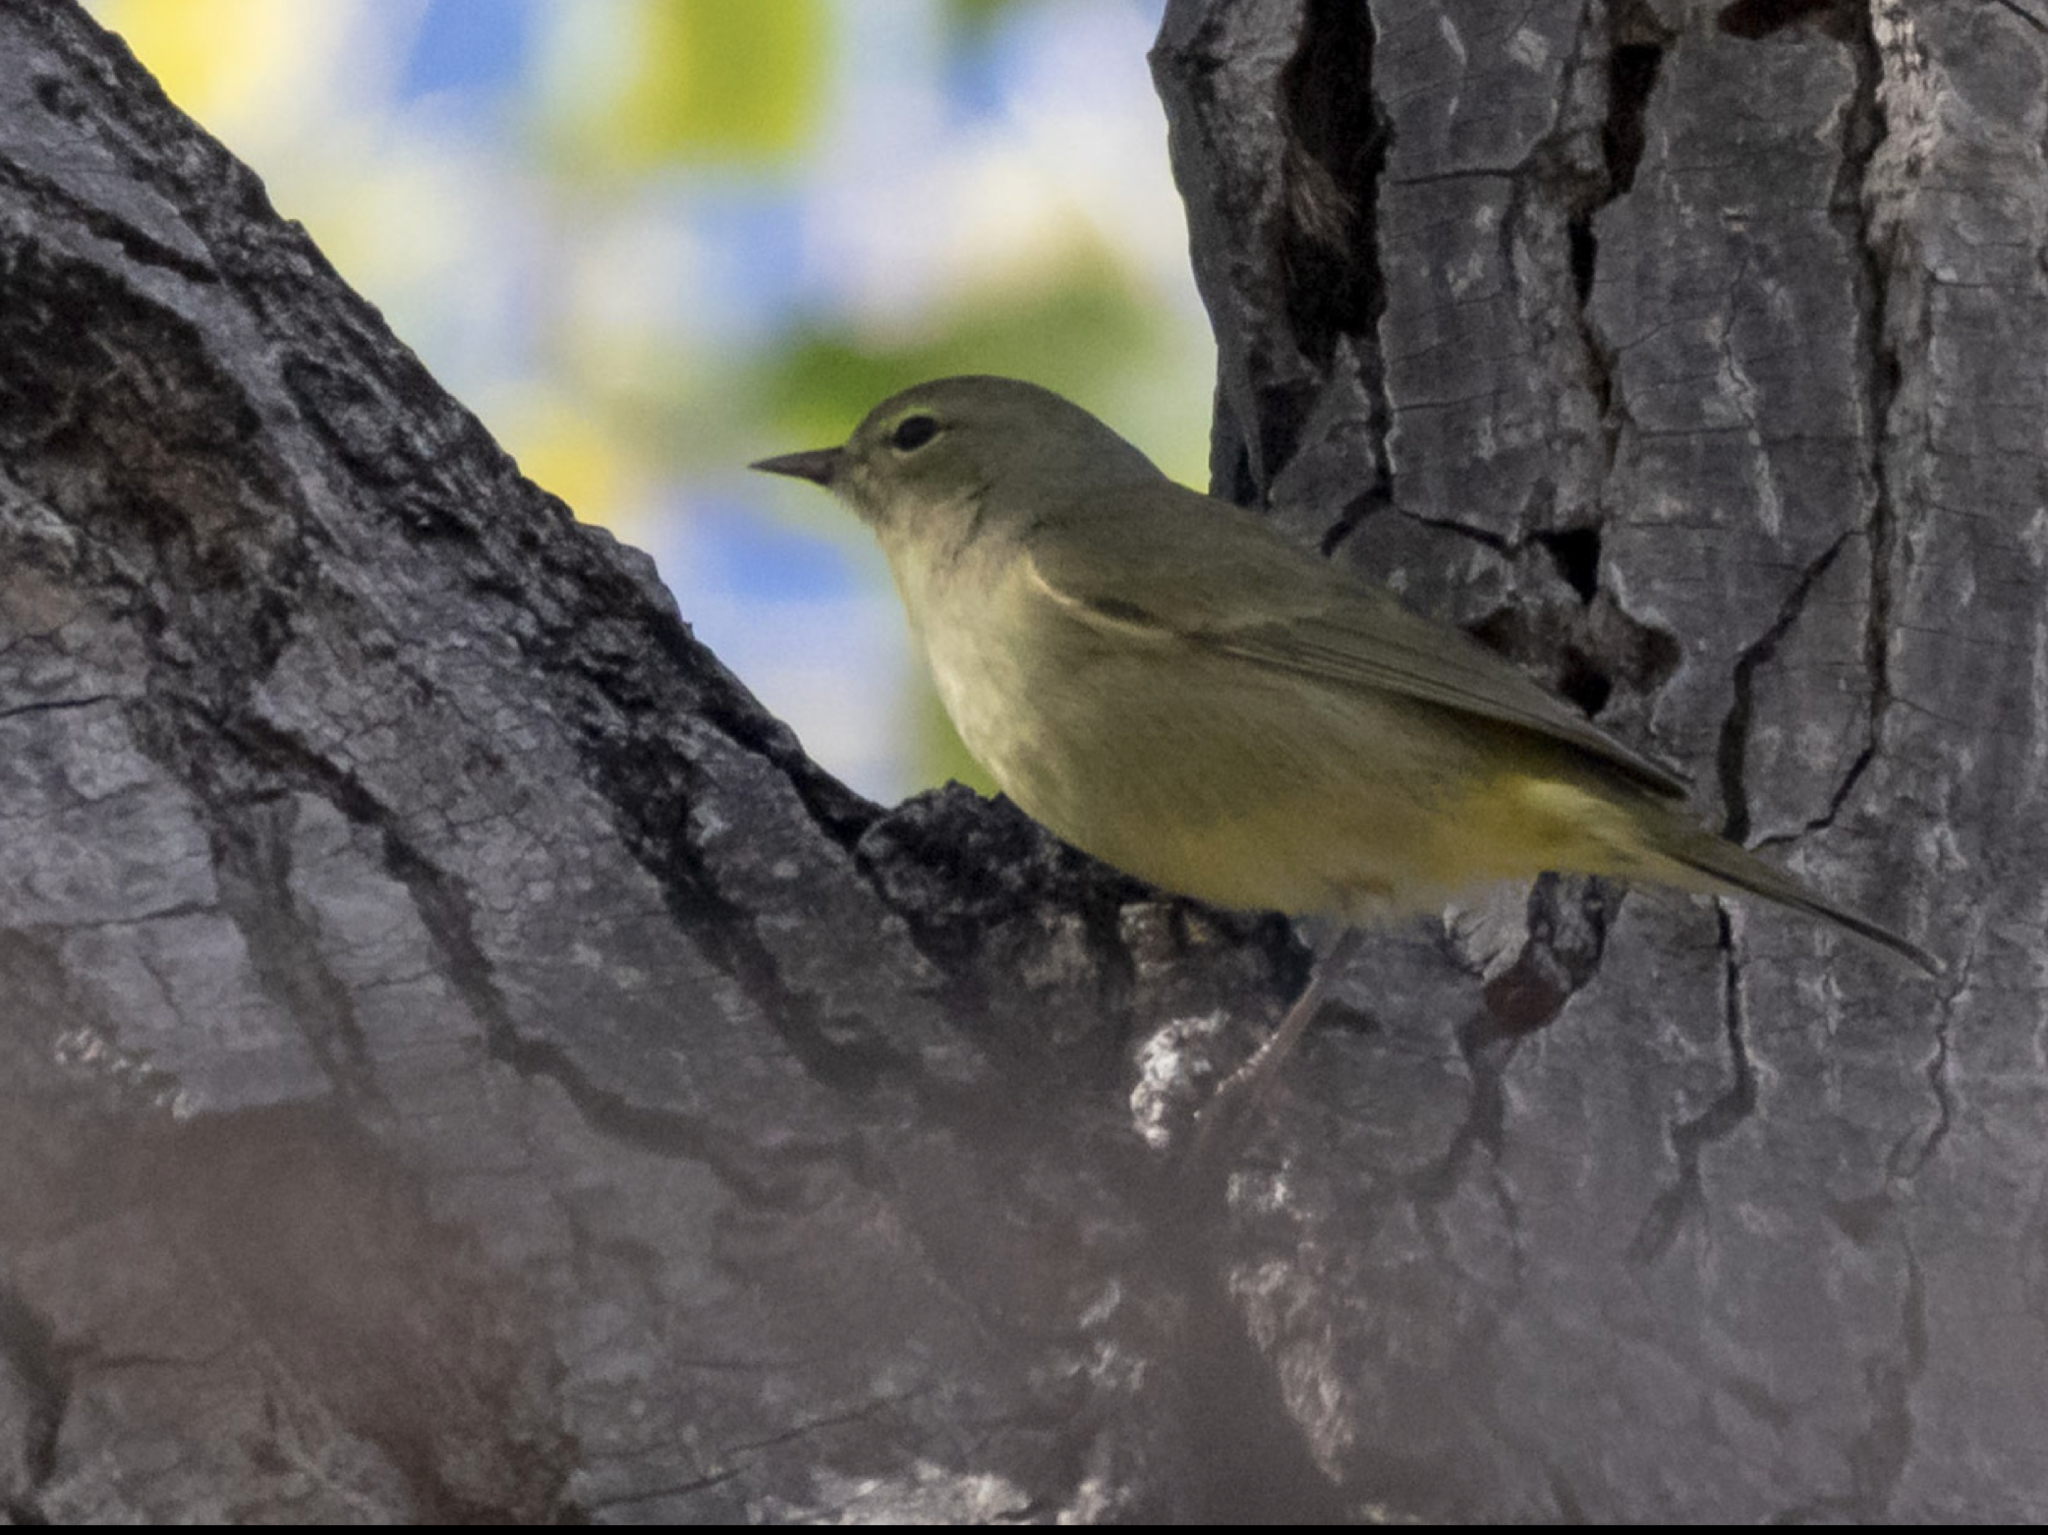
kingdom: Animalia
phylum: Chordata
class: Aves
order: Passeriformes
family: Parulidae
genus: Leiothlypis
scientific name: Leiothlypis celata
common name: Orange-crowned warbler
